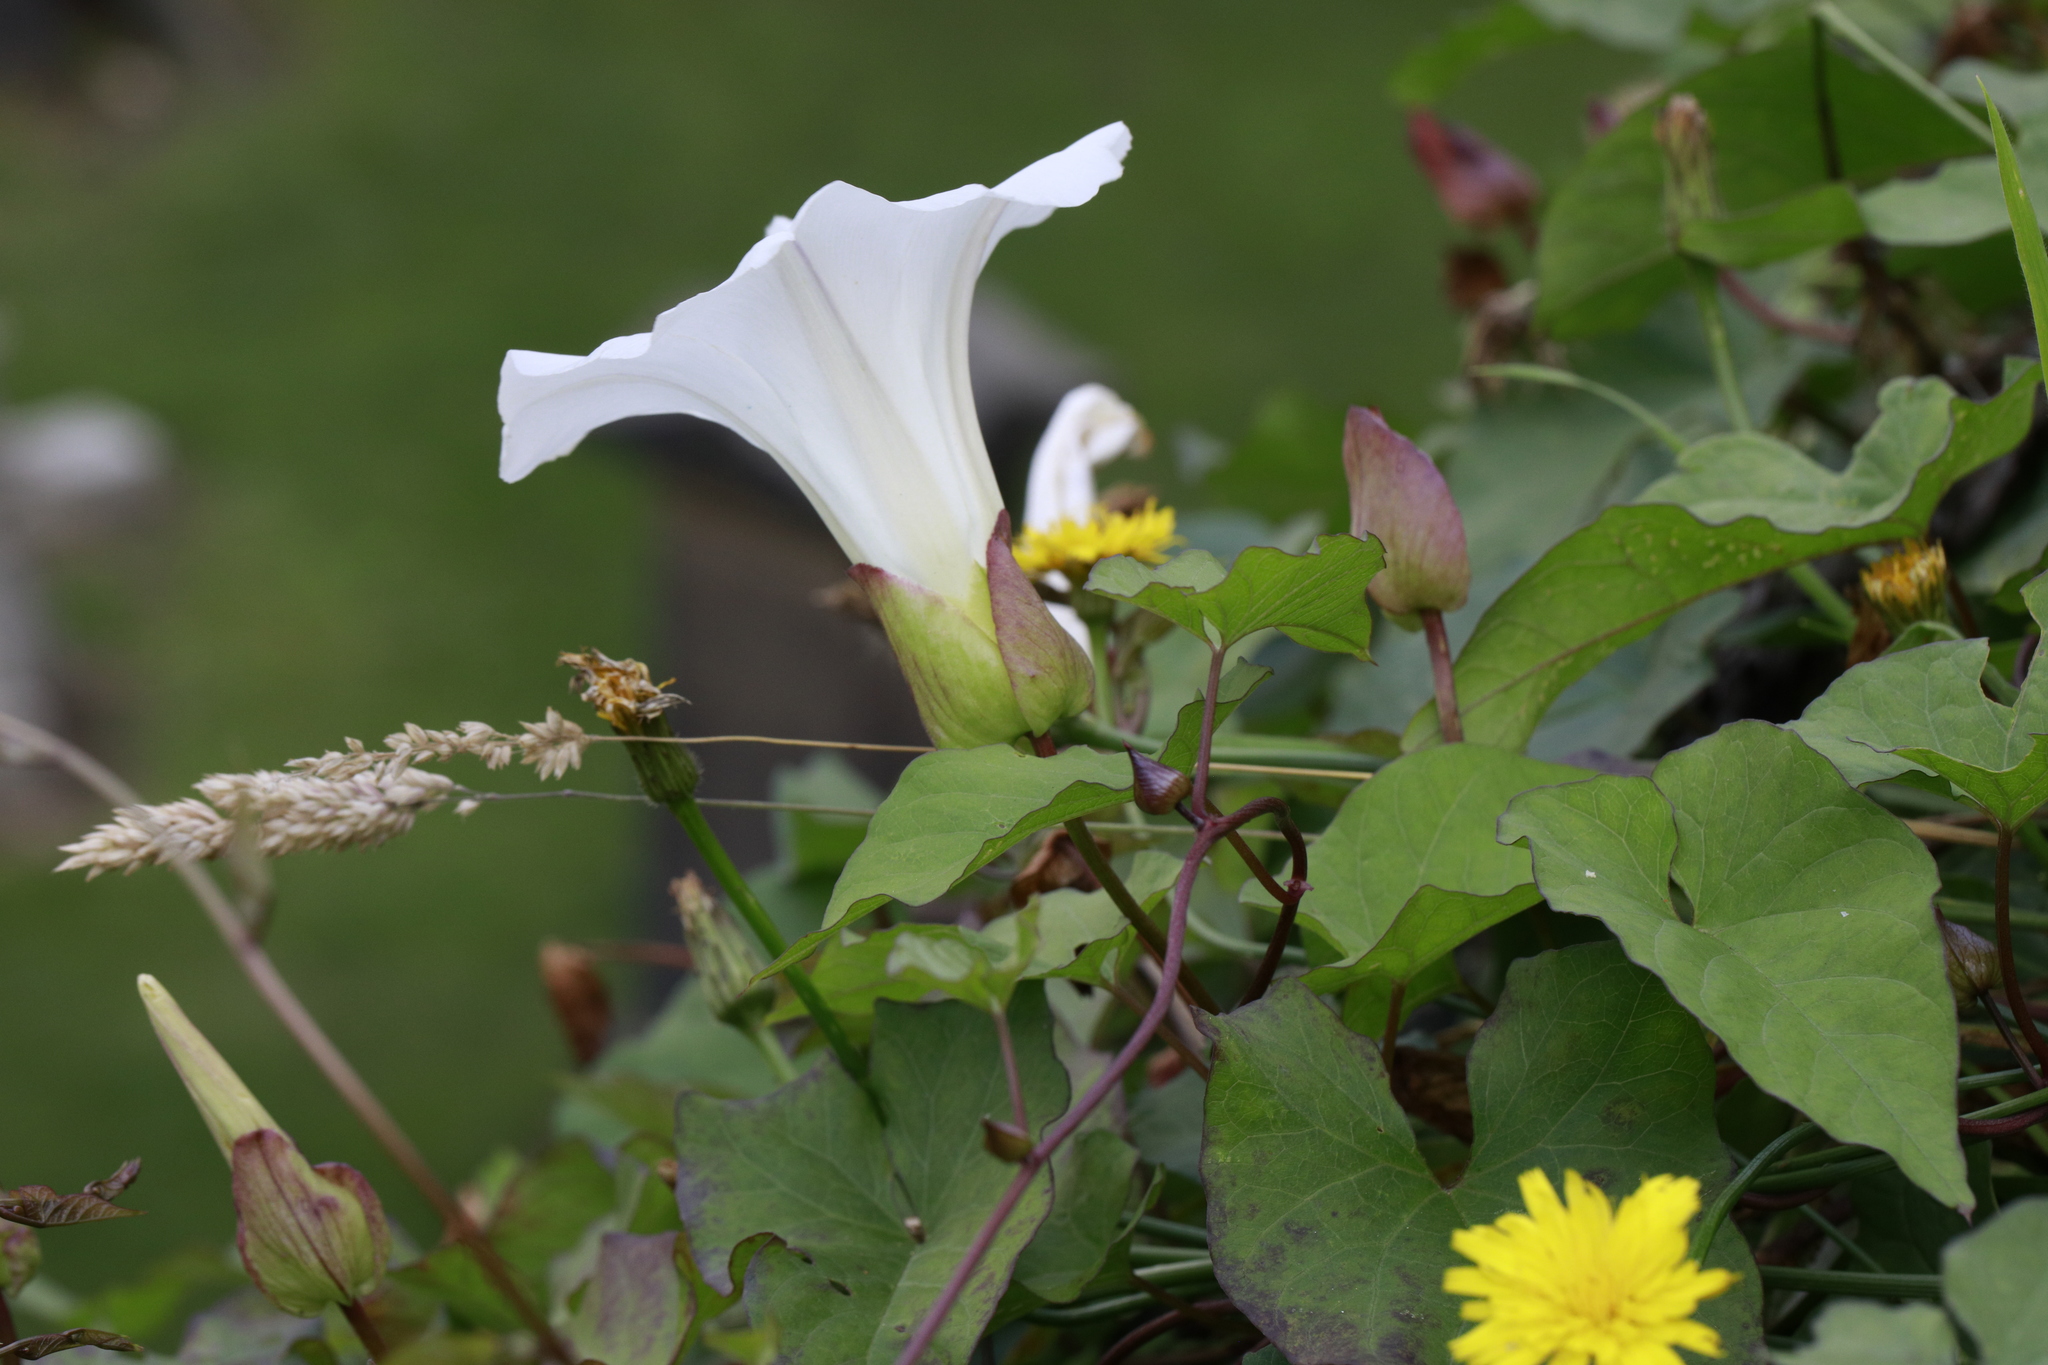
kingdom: Plantae
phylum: Tracheophyta
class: Magnoliopsida
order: Solanales
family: Convolvulaceae
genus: Calystegia
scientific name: Calystegia silvatica
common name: Large bindweed
